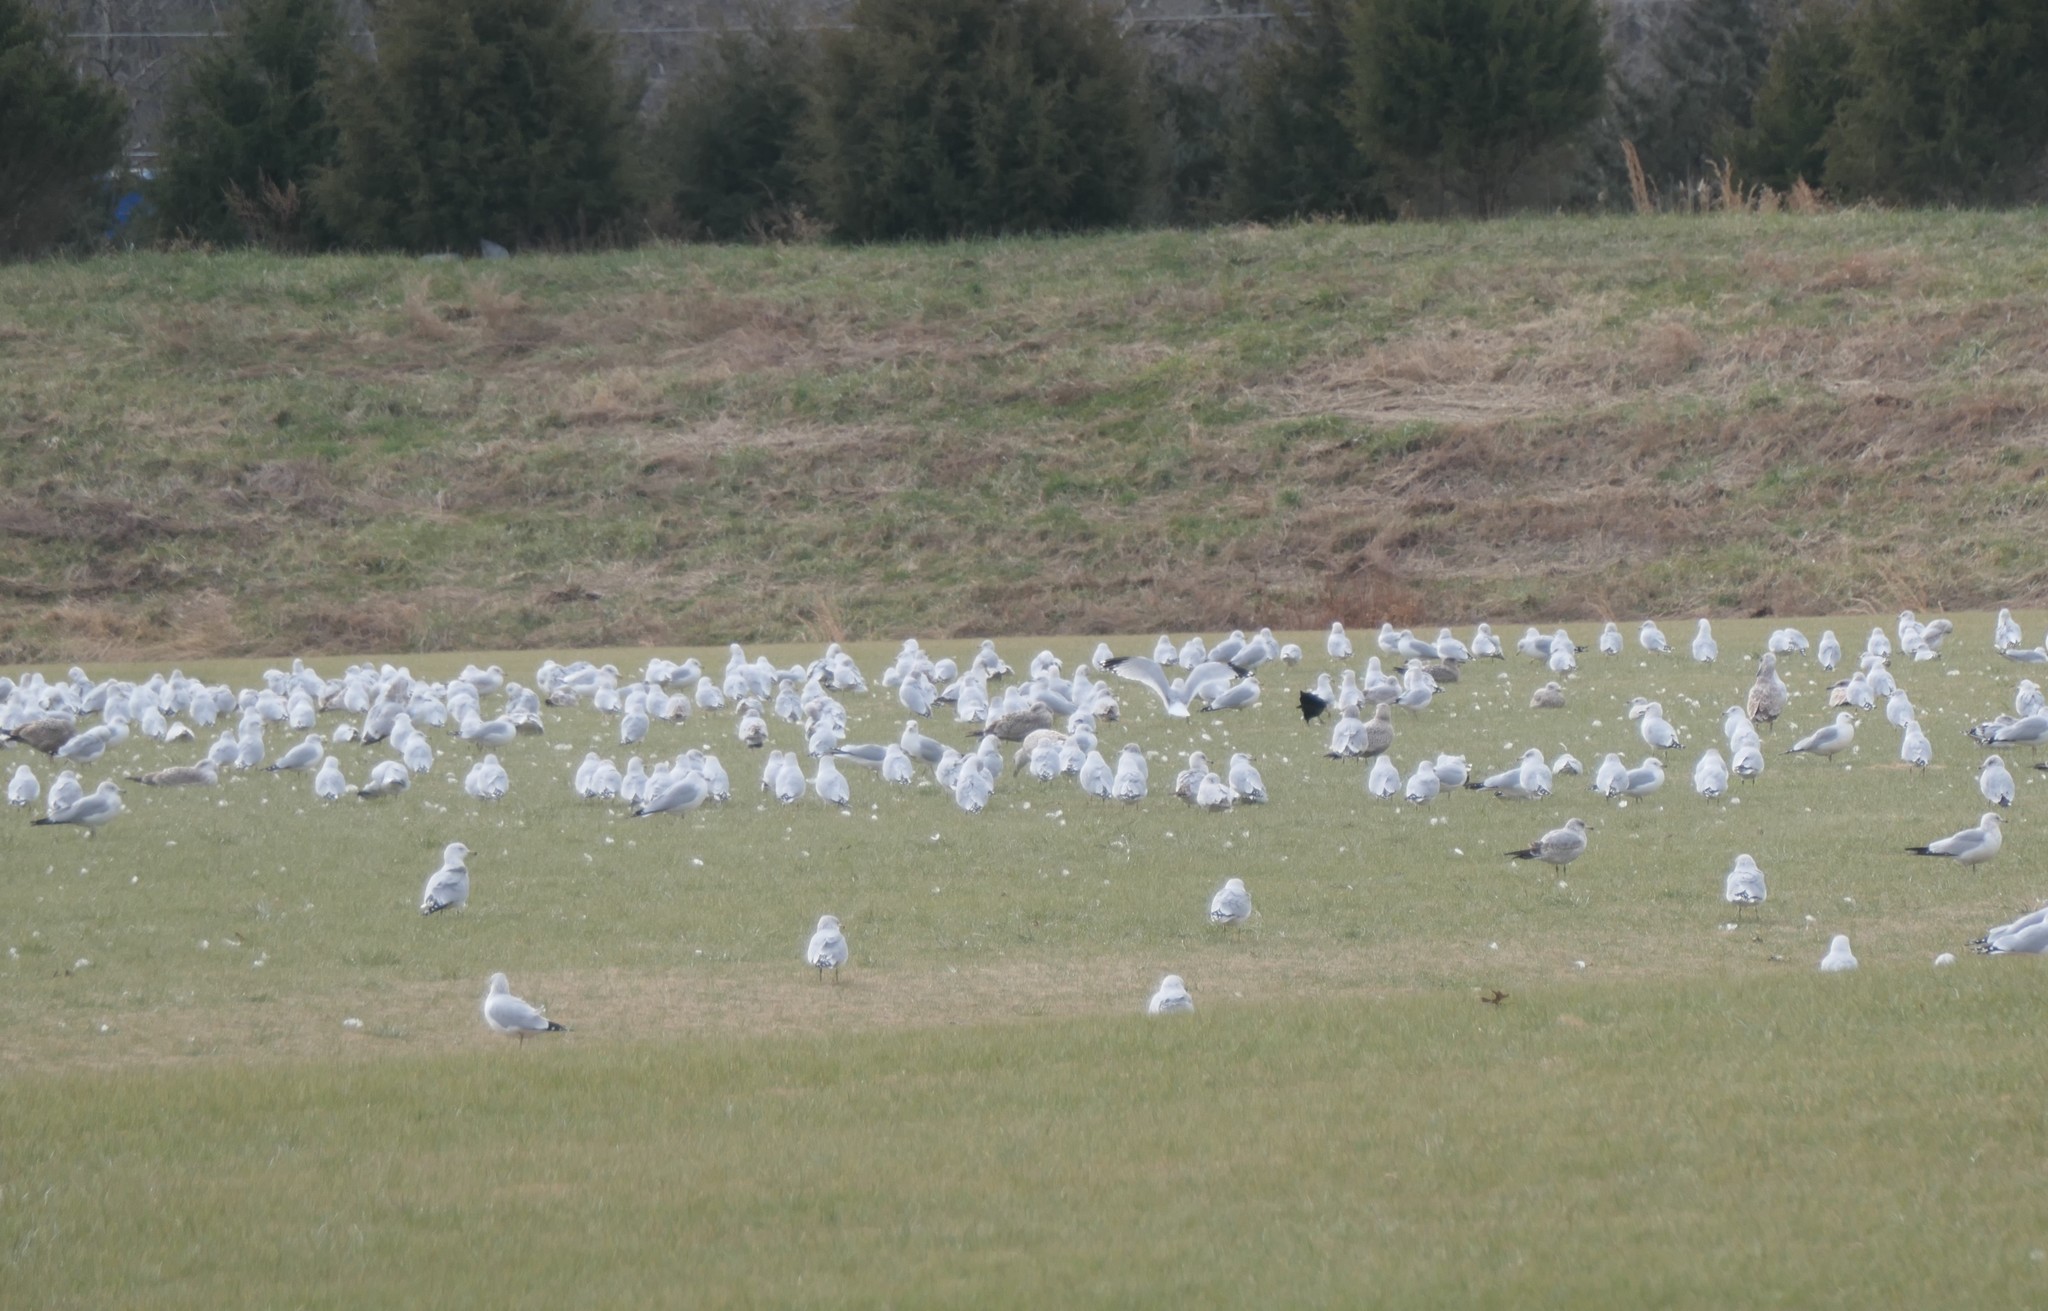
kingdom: Animalia
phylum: Chordata
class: Aves
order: Charadriiformes
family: Laridae
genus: Larus
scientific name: Larus delawarensis
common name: Ring-billed gull
